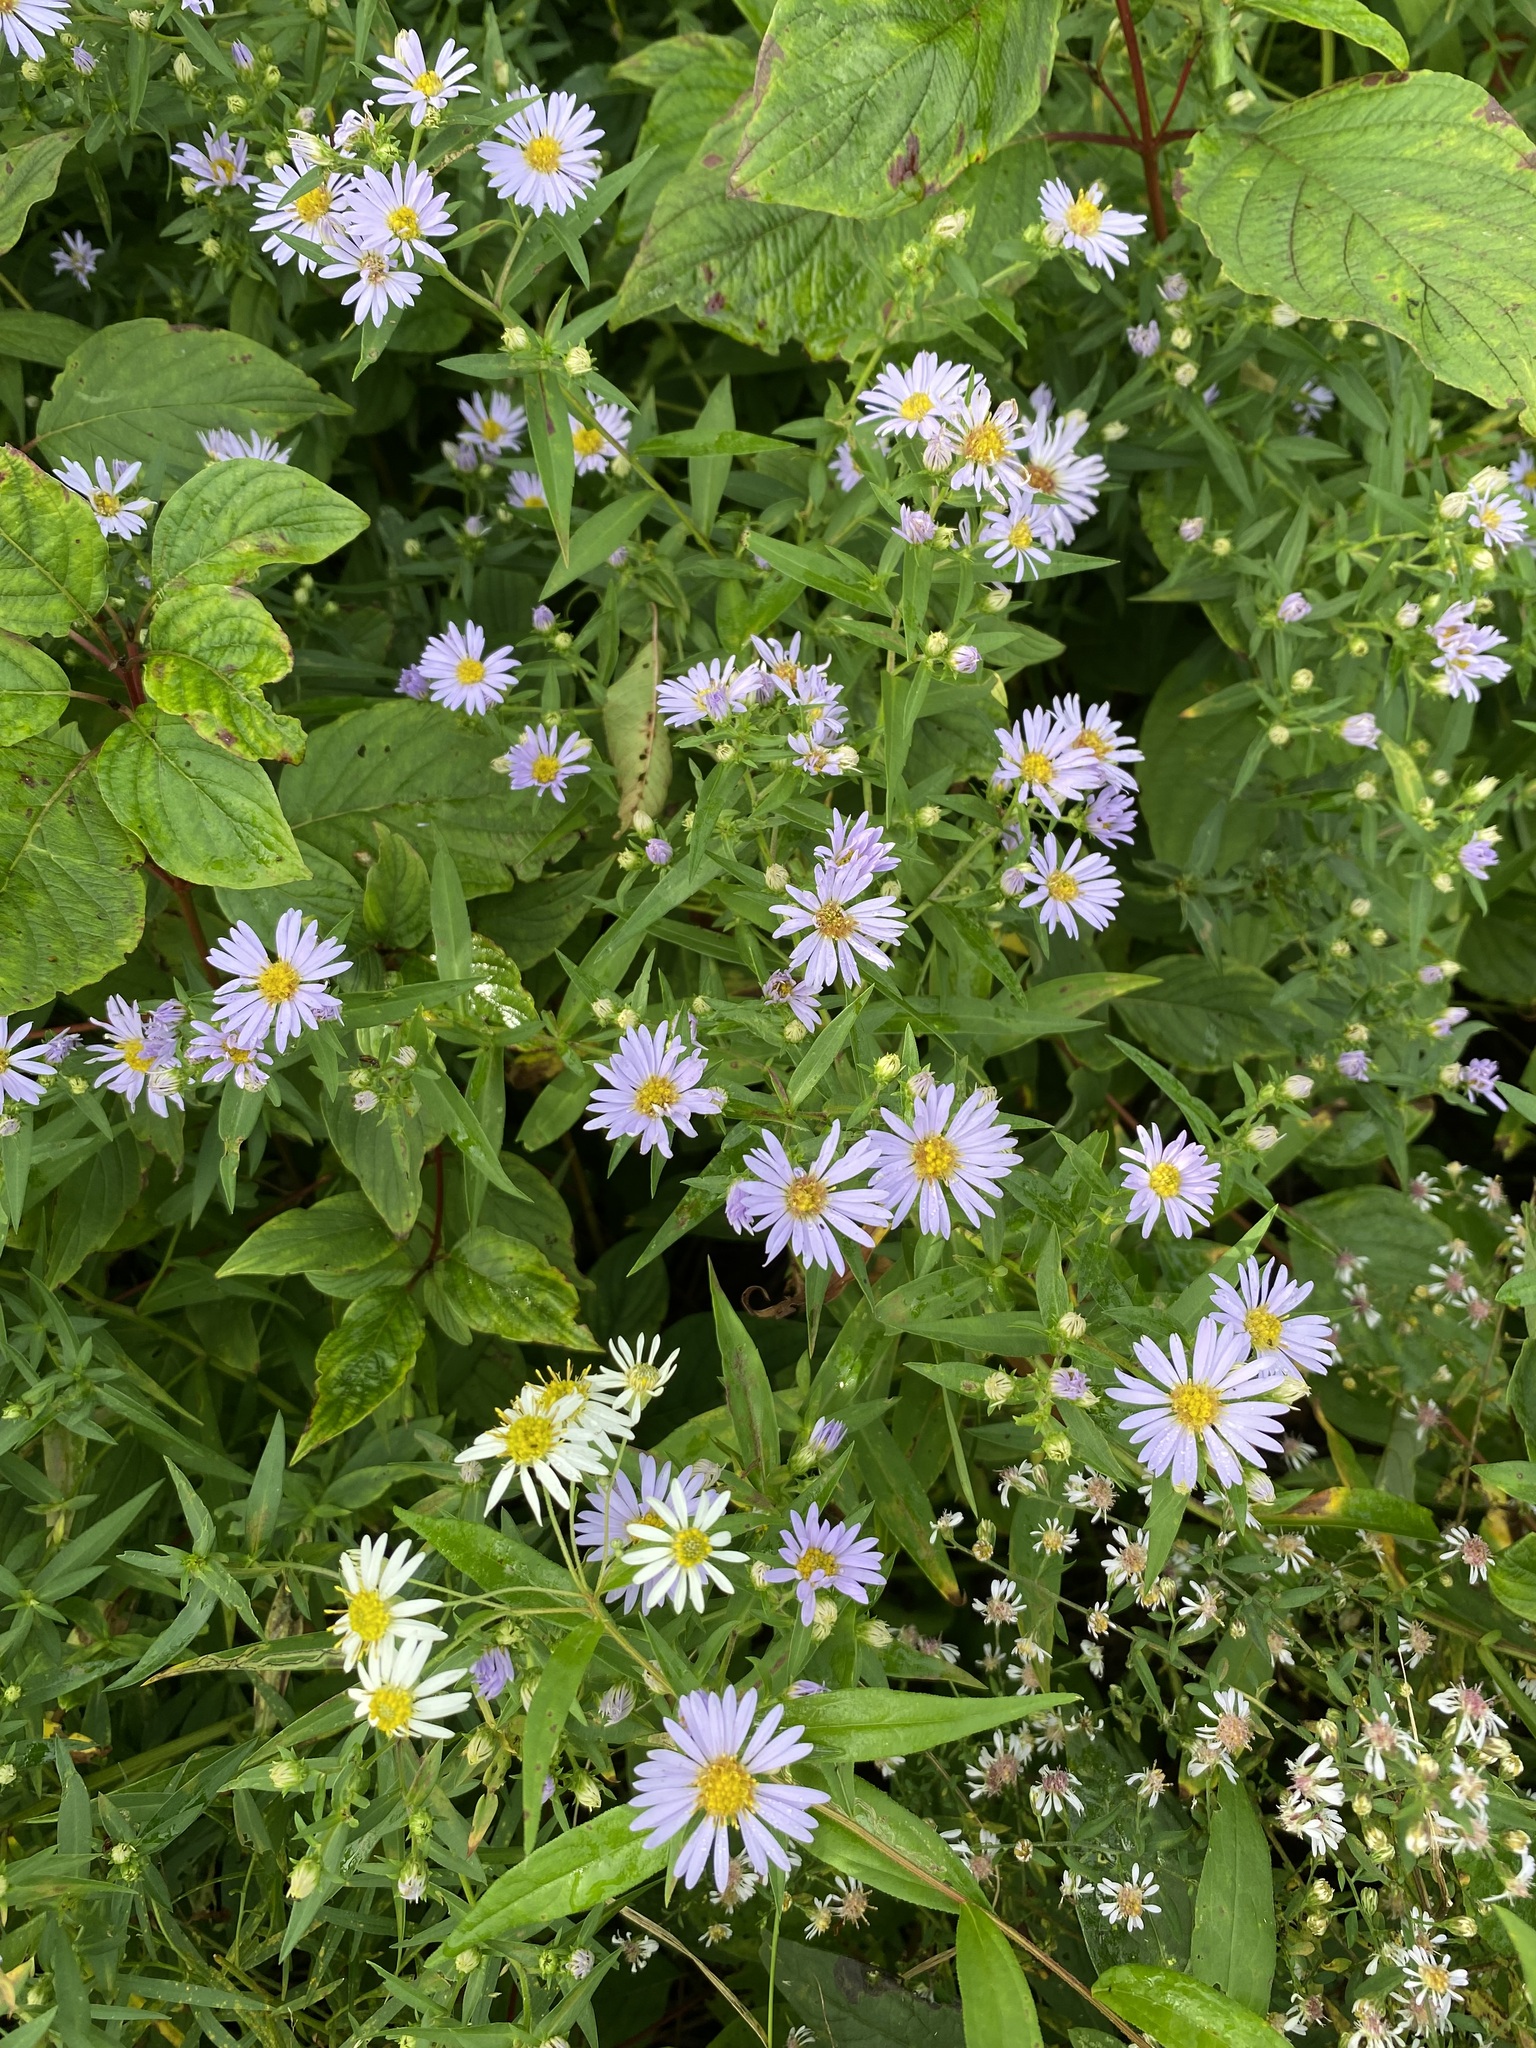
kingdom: Plantae
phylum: Tracheophyta
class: Magnoliopsida
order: Asterales
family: Asteraceae
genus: Symphyotrichum
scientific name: Symphyotrichum novi-belgii
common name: Michaelmas daisy
